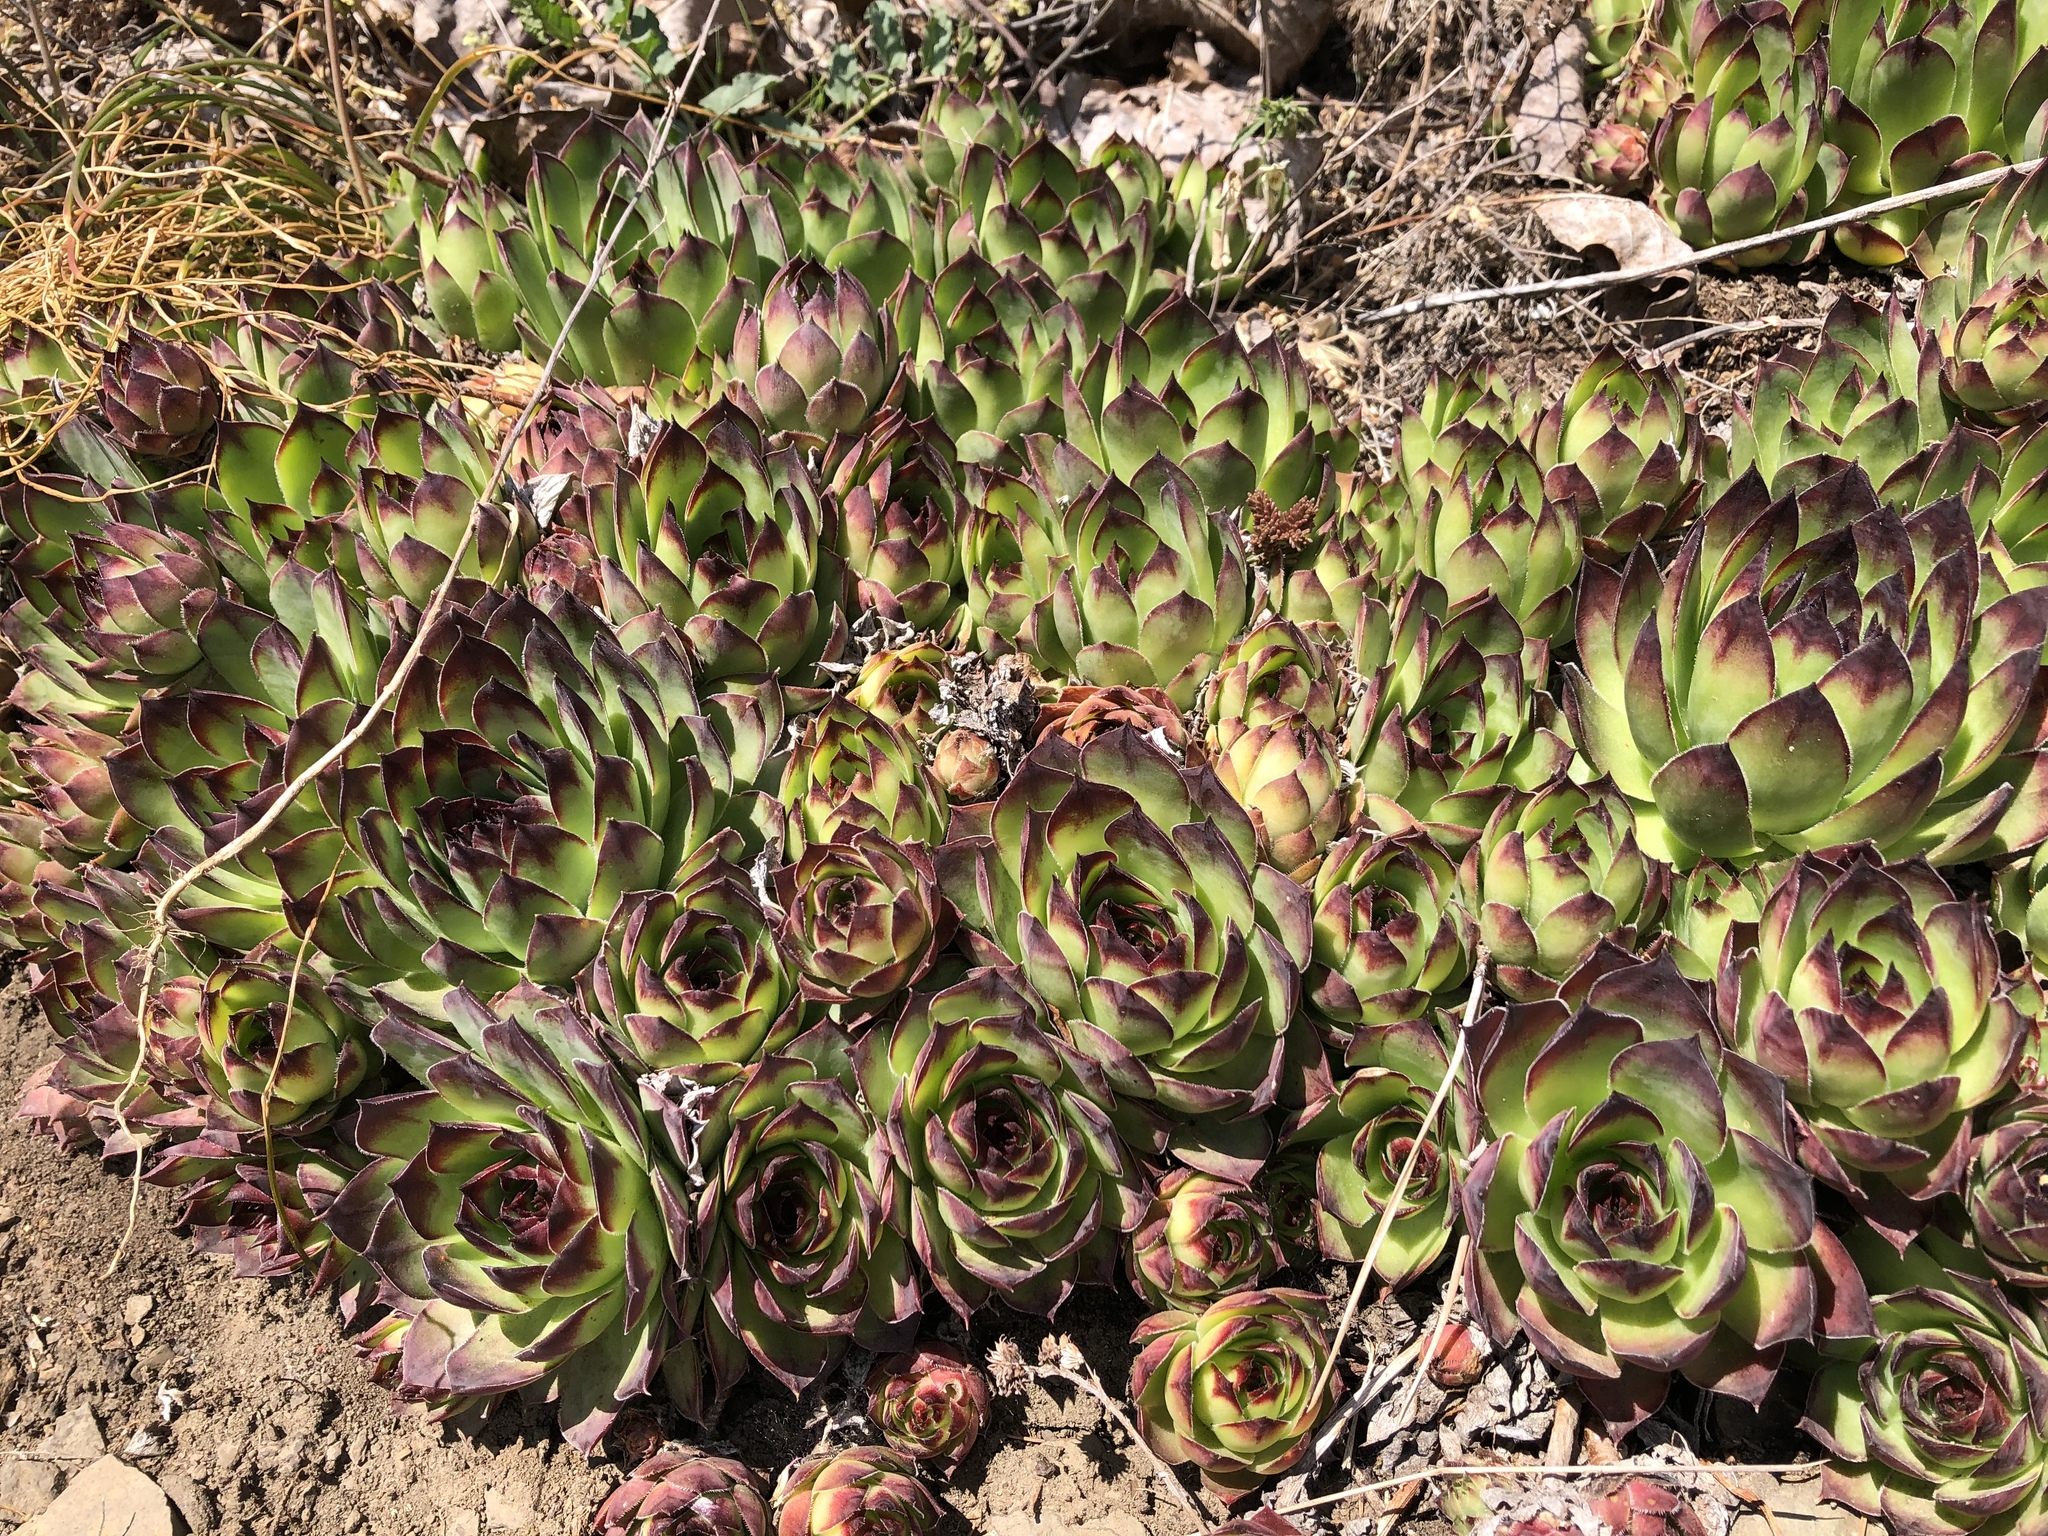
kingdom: Plantae
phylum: Tracheophyta
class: Magnoliopsida
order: Saxifragales
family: Crassulaceae
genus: Sempervivum
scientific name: Sempervivum tectorum
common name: House-leek
